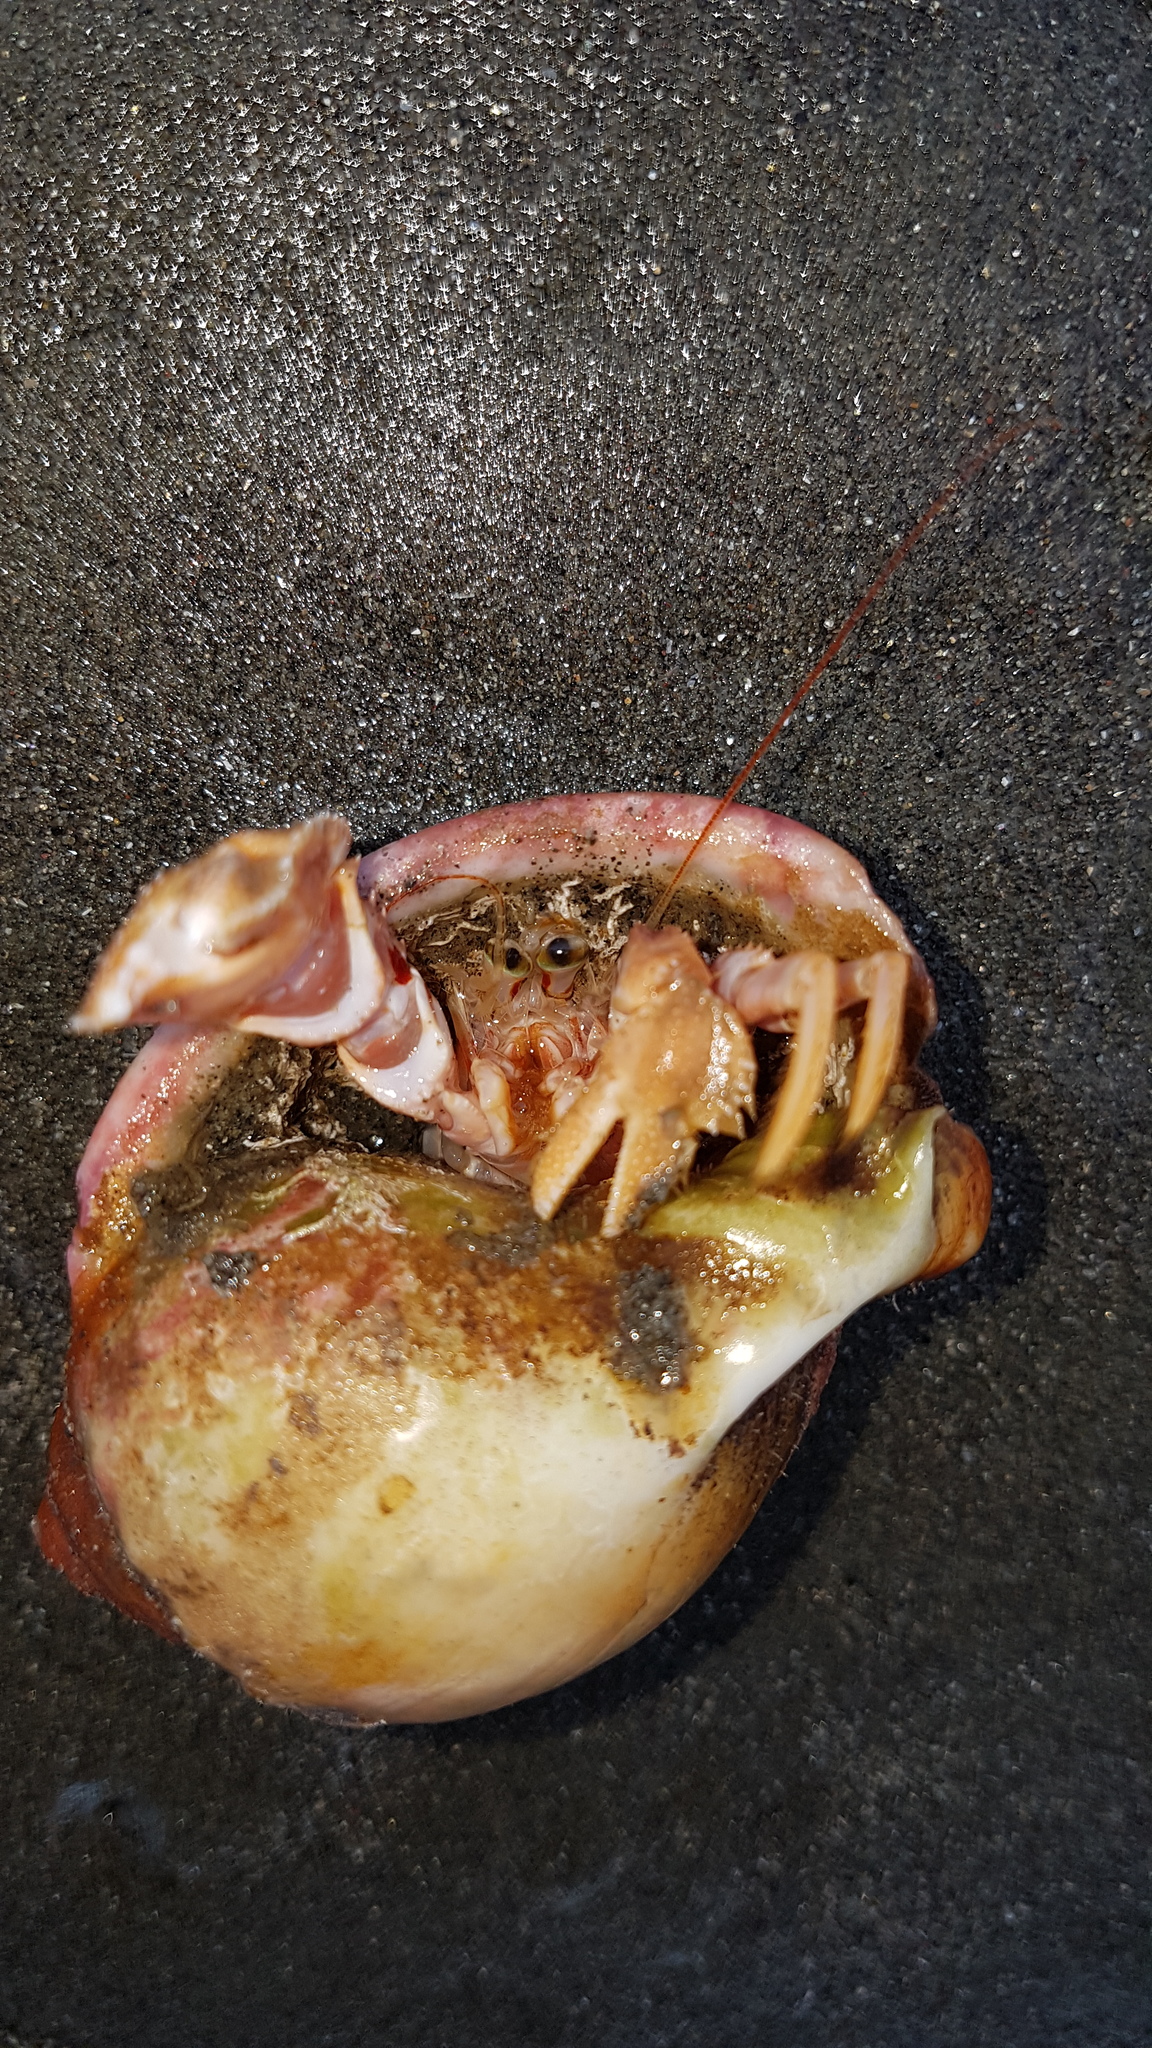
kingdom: Animalia
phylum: Arthropoda
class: Malacostraca
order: Decapoda
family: Paguridae
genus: Diacanthurus
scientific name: Diacanthurus rubricatus
